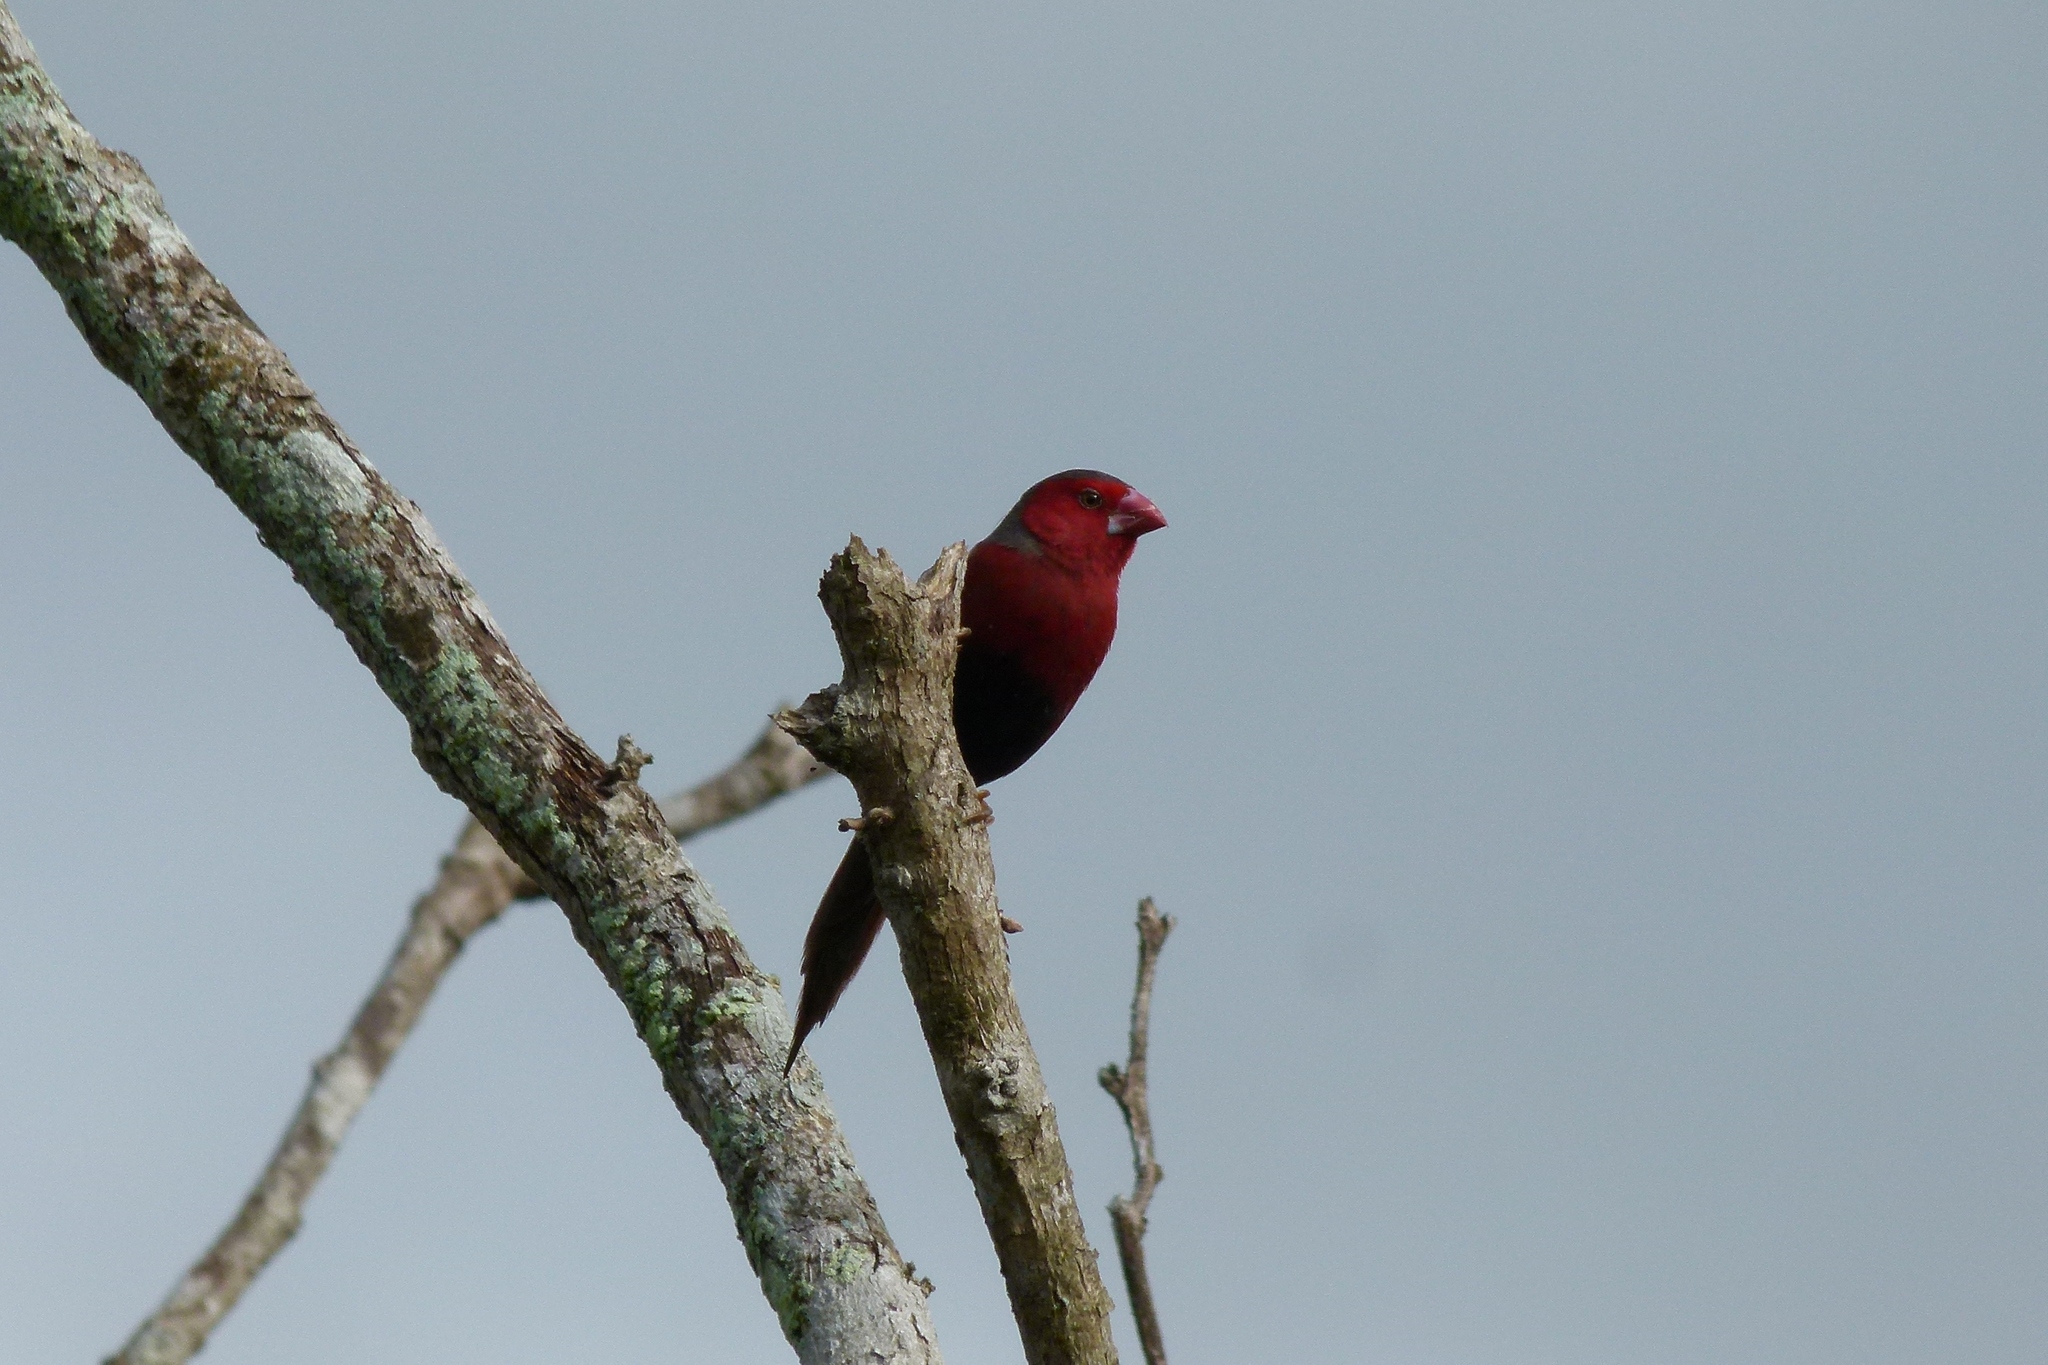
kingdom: Animalia
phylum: Chordata
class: Aves
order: Passeriformes
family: Estrildidae
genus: Neochmia
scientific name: Neochmia phaeton
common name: Crimson finch
